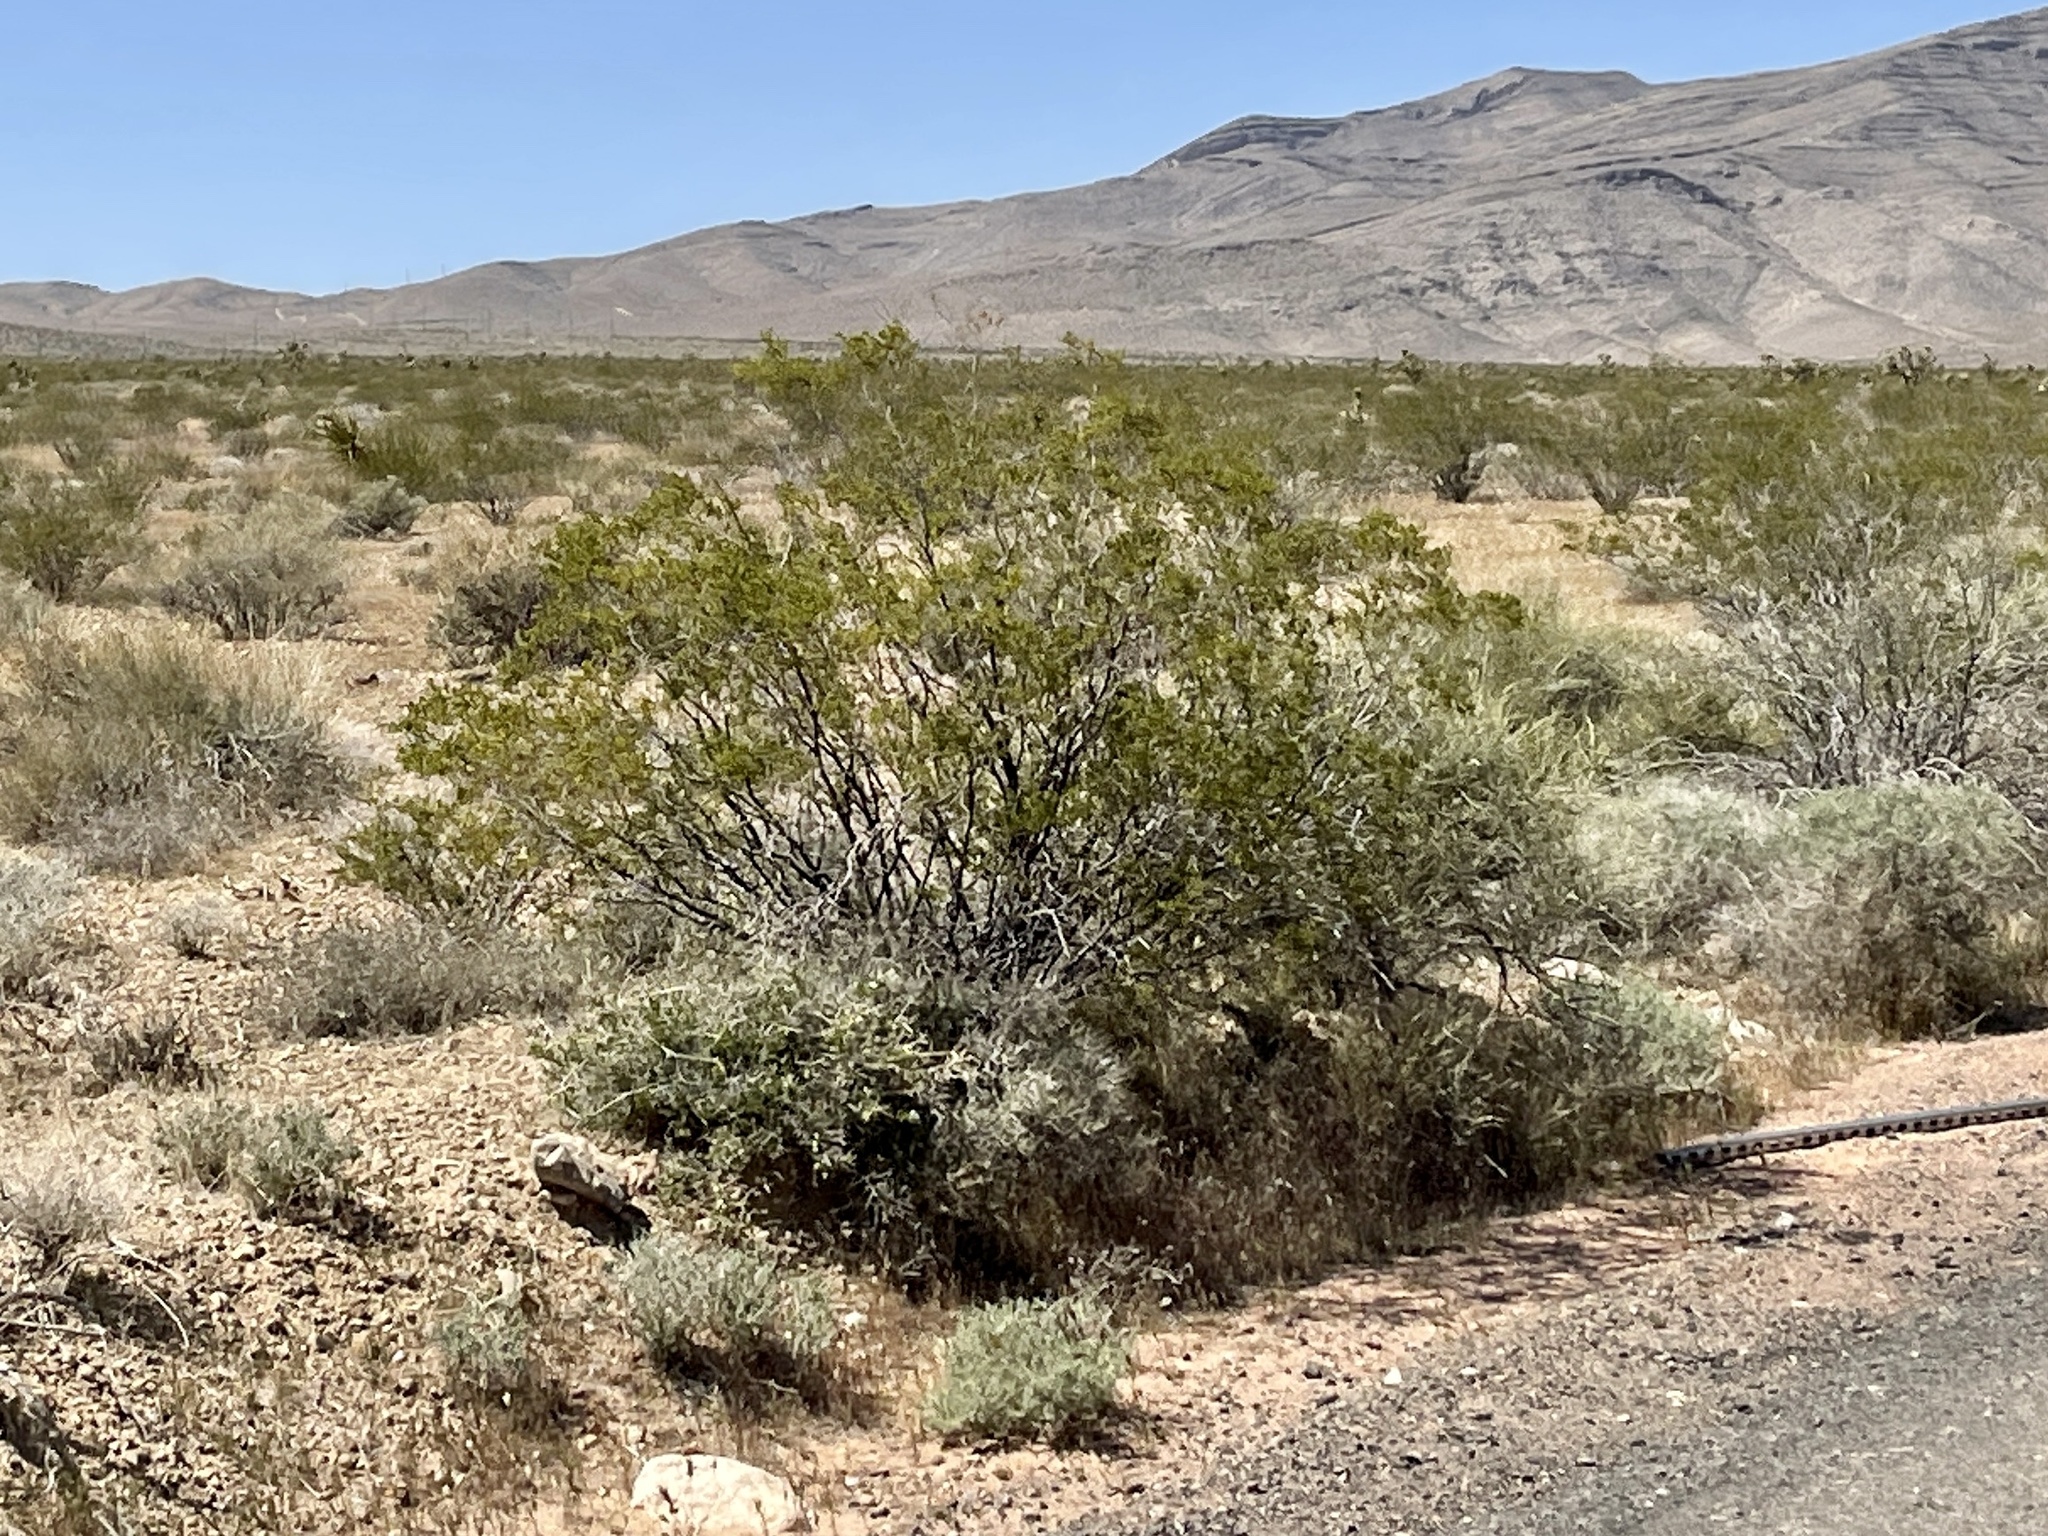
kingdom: Plantae
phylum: Tracheophyta
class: Magnoliopsida
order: Zygophyllales
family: Zygophyllaceae
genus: Larrea
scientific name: Larrea tridentata
